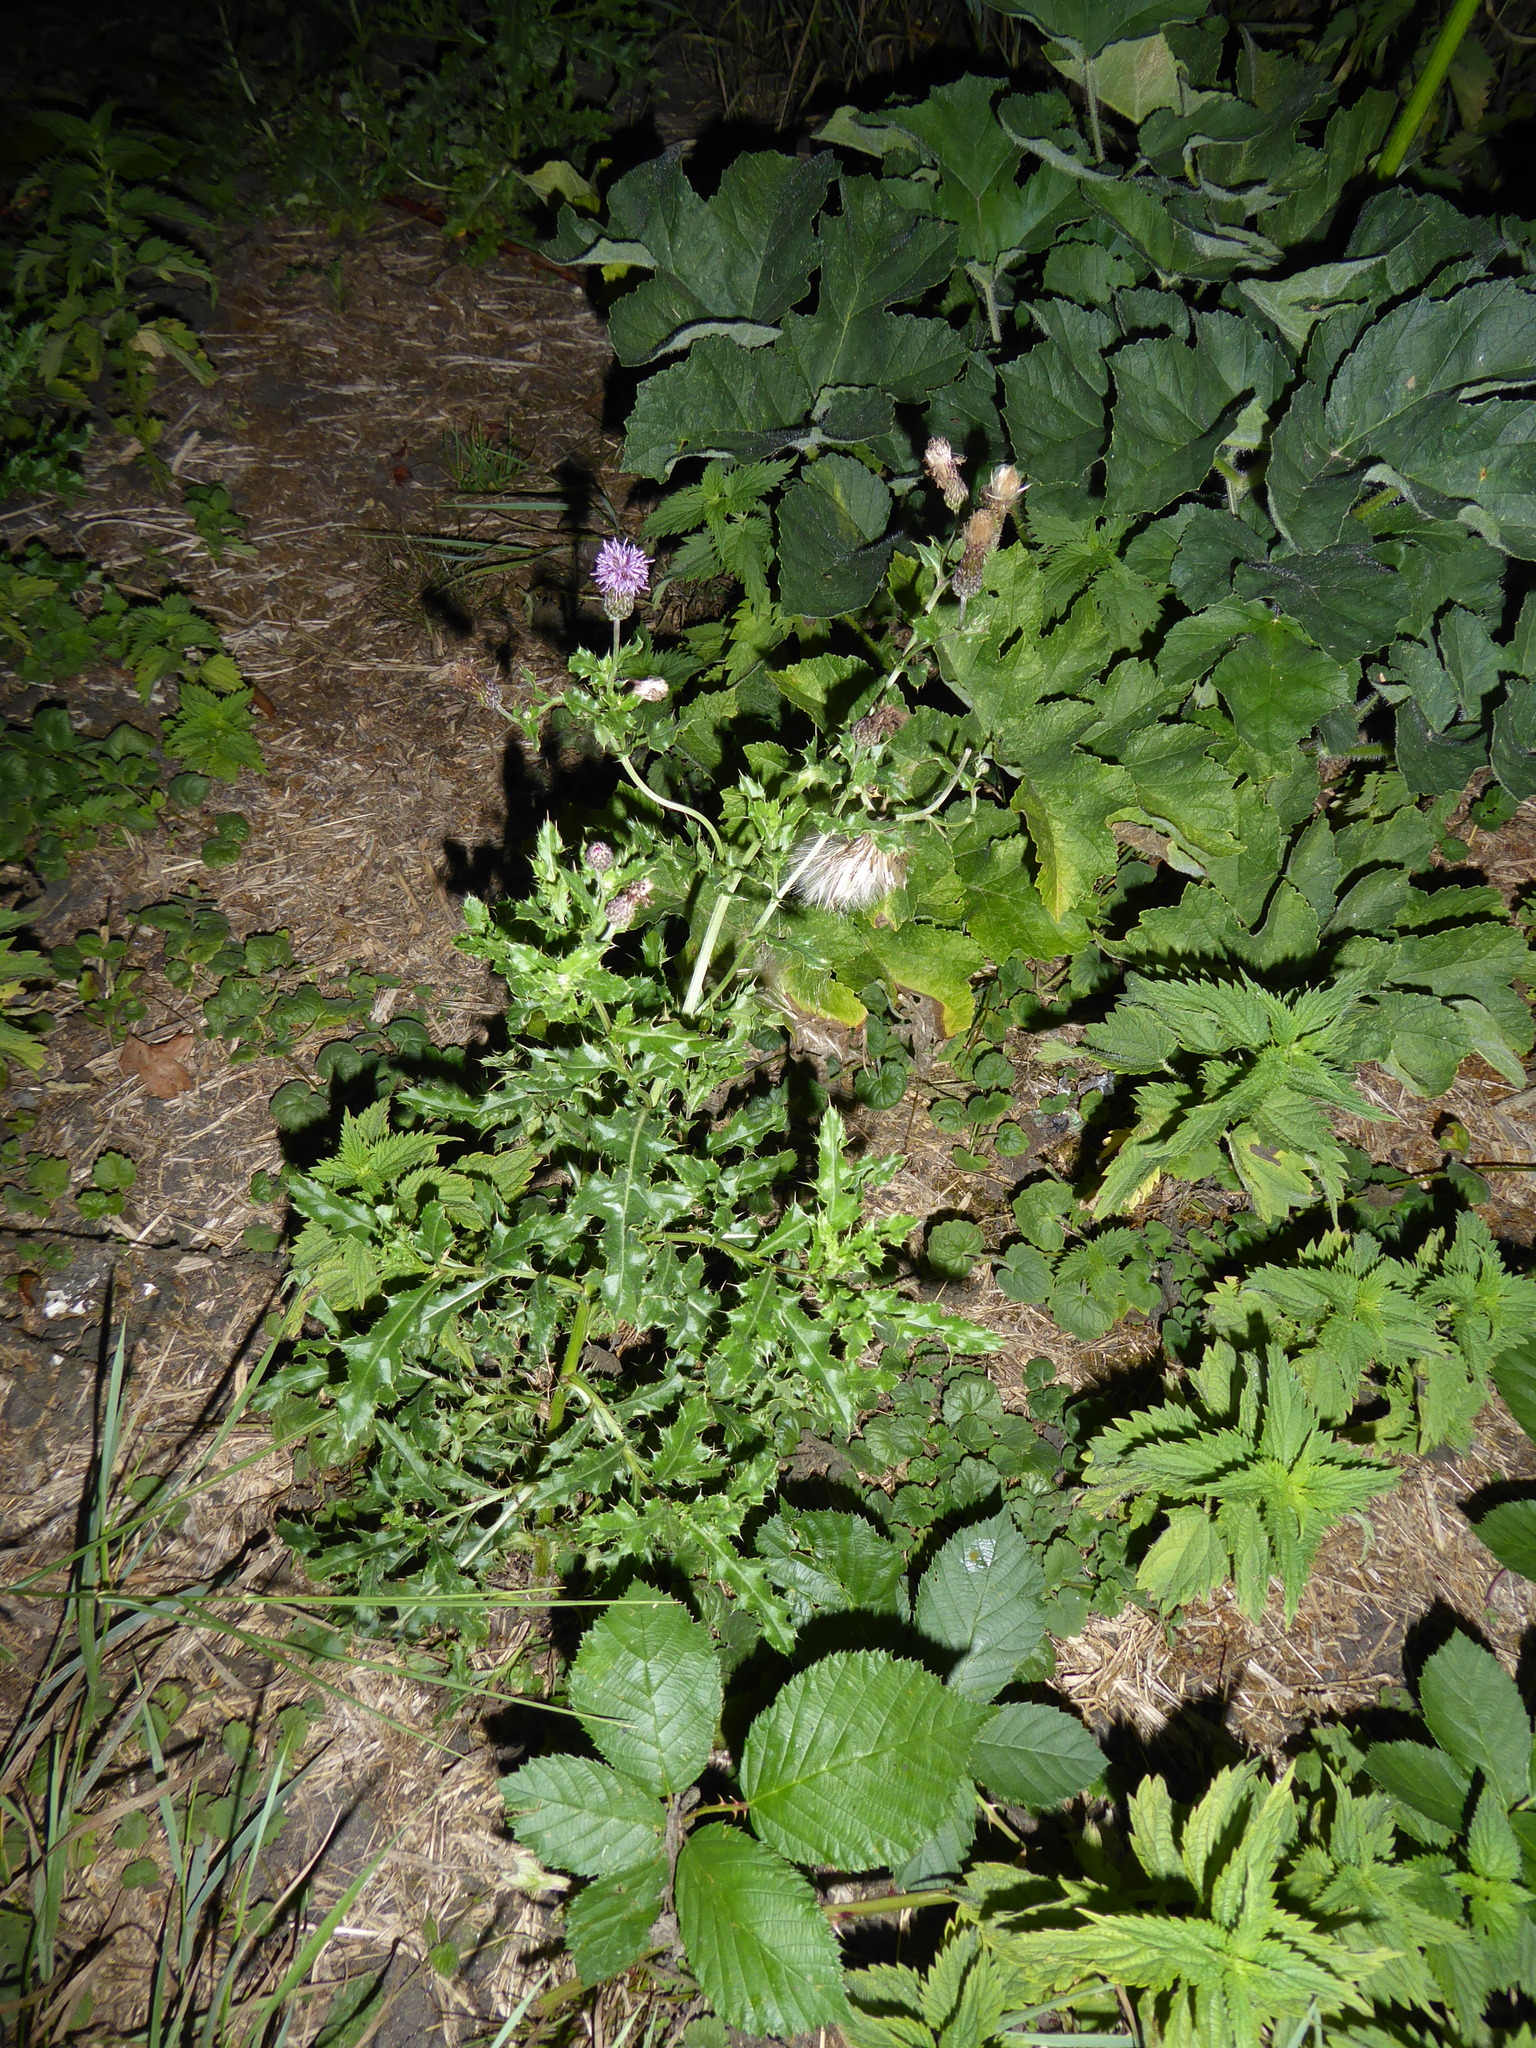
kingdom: Plantae
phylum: Tracheophyta
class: Magnoliopsida
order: Asterales
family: Asteraceae
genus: Cirsium
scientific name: Cirsium arvense
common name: Creeping thistle
